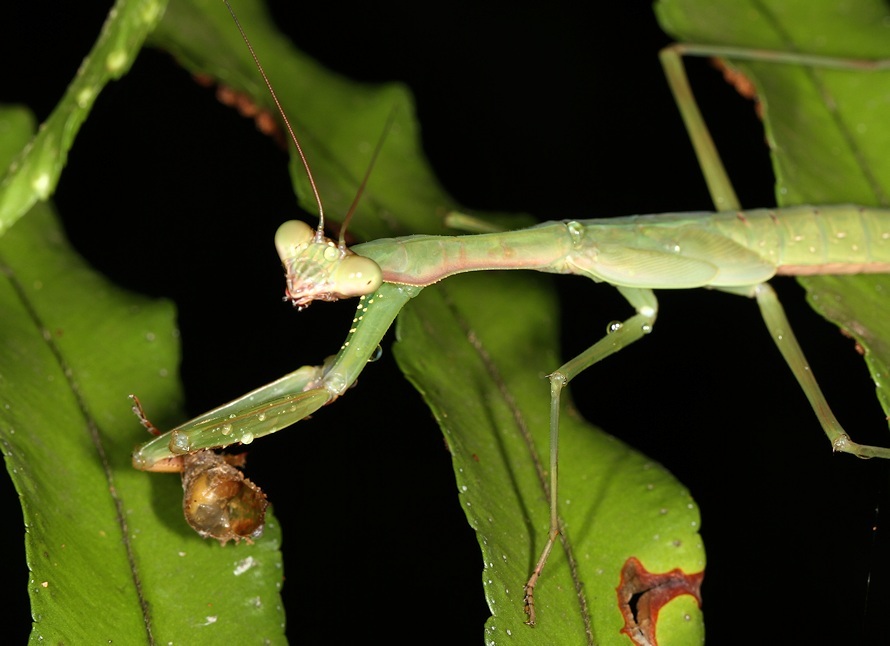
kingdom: Animalia
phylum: Arthropoda
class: Insecta
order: Mantodea
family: Mantidae
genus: Polyspilota
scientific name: Polyspilota aeruginosa
